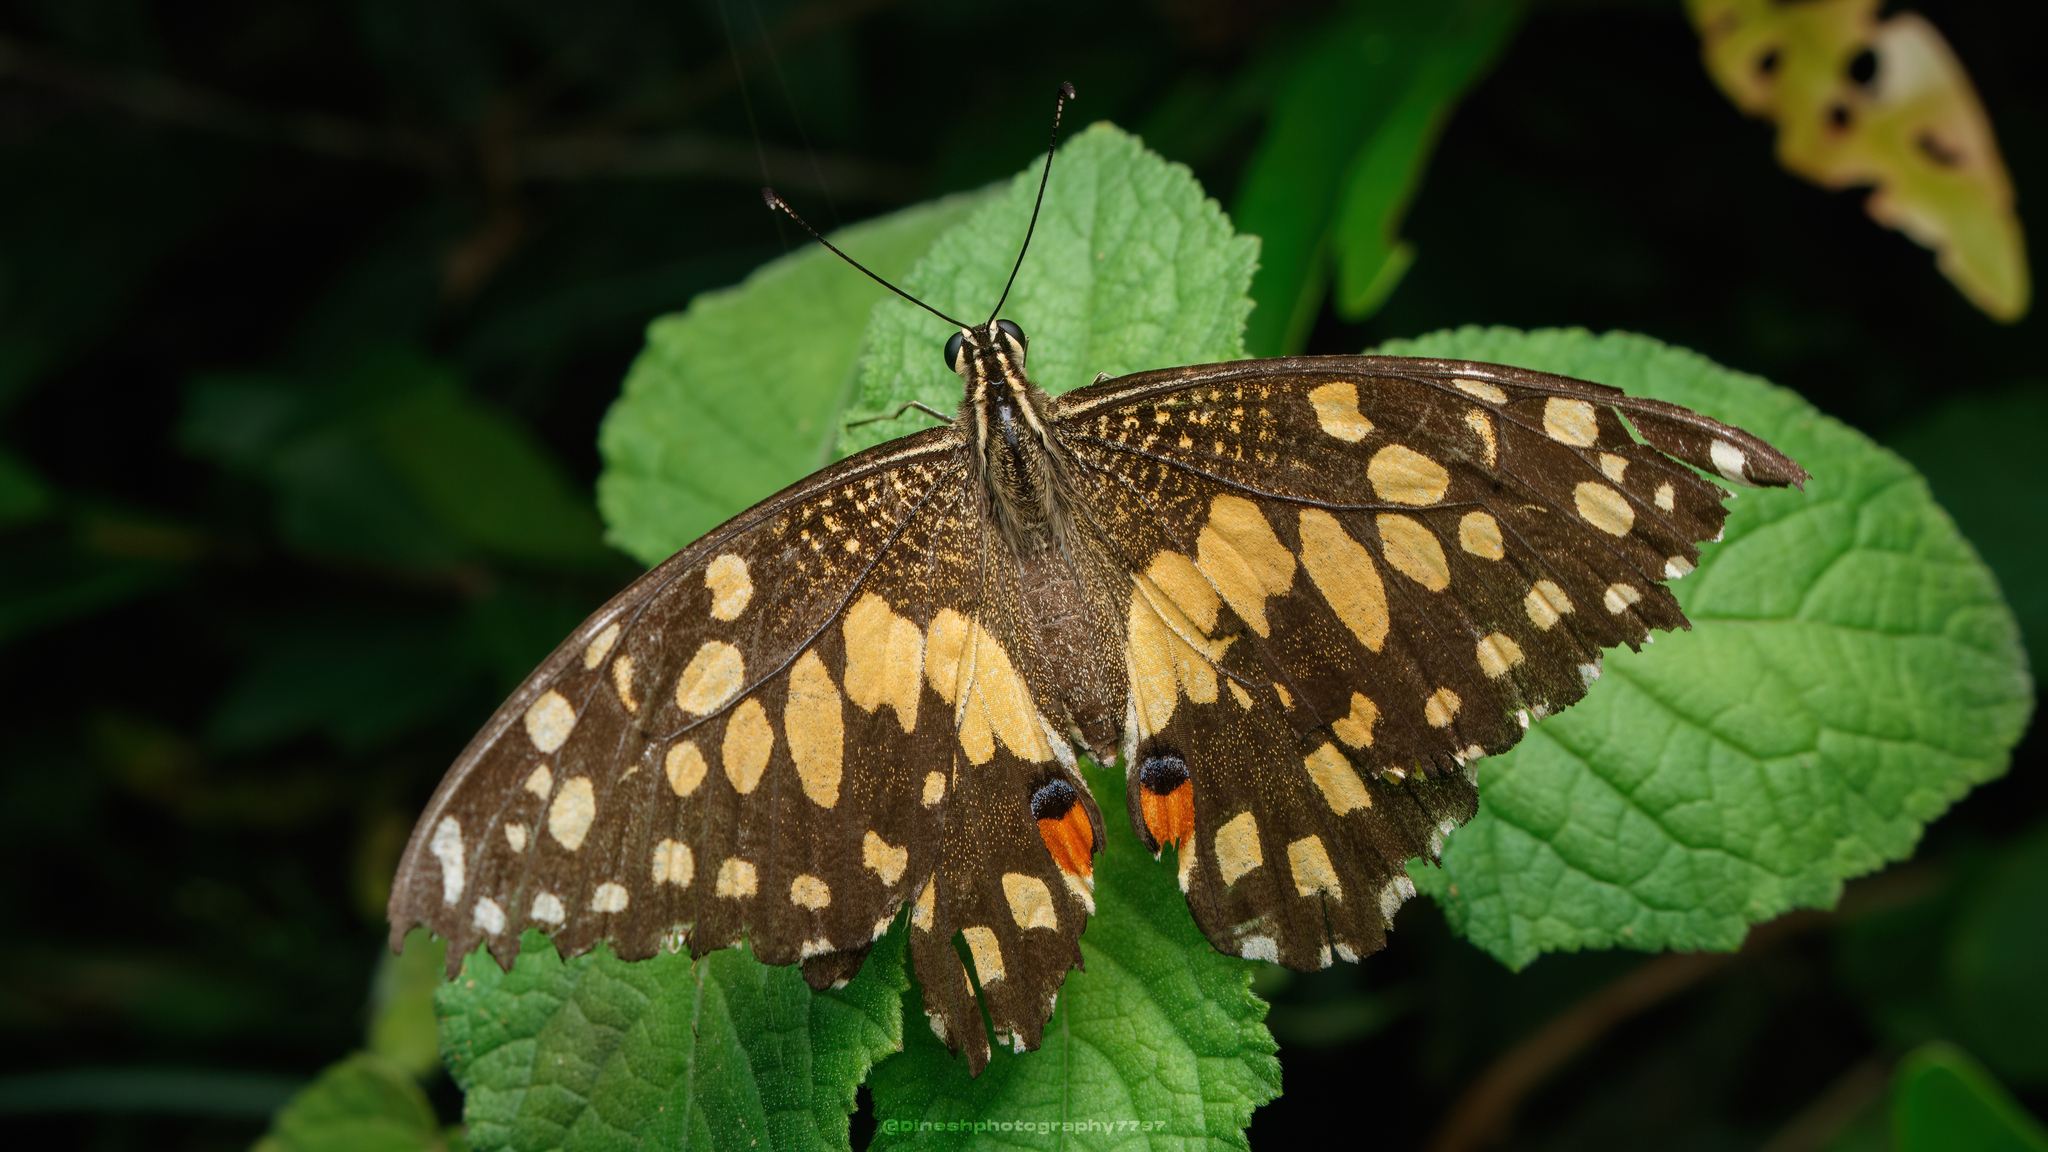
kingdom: Animalia
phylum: Arthropoda
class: Insecta
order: Lepidoptera
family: Papilionidae
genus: Papilio
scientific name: Papilio demoleus
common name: Lime butterfly
